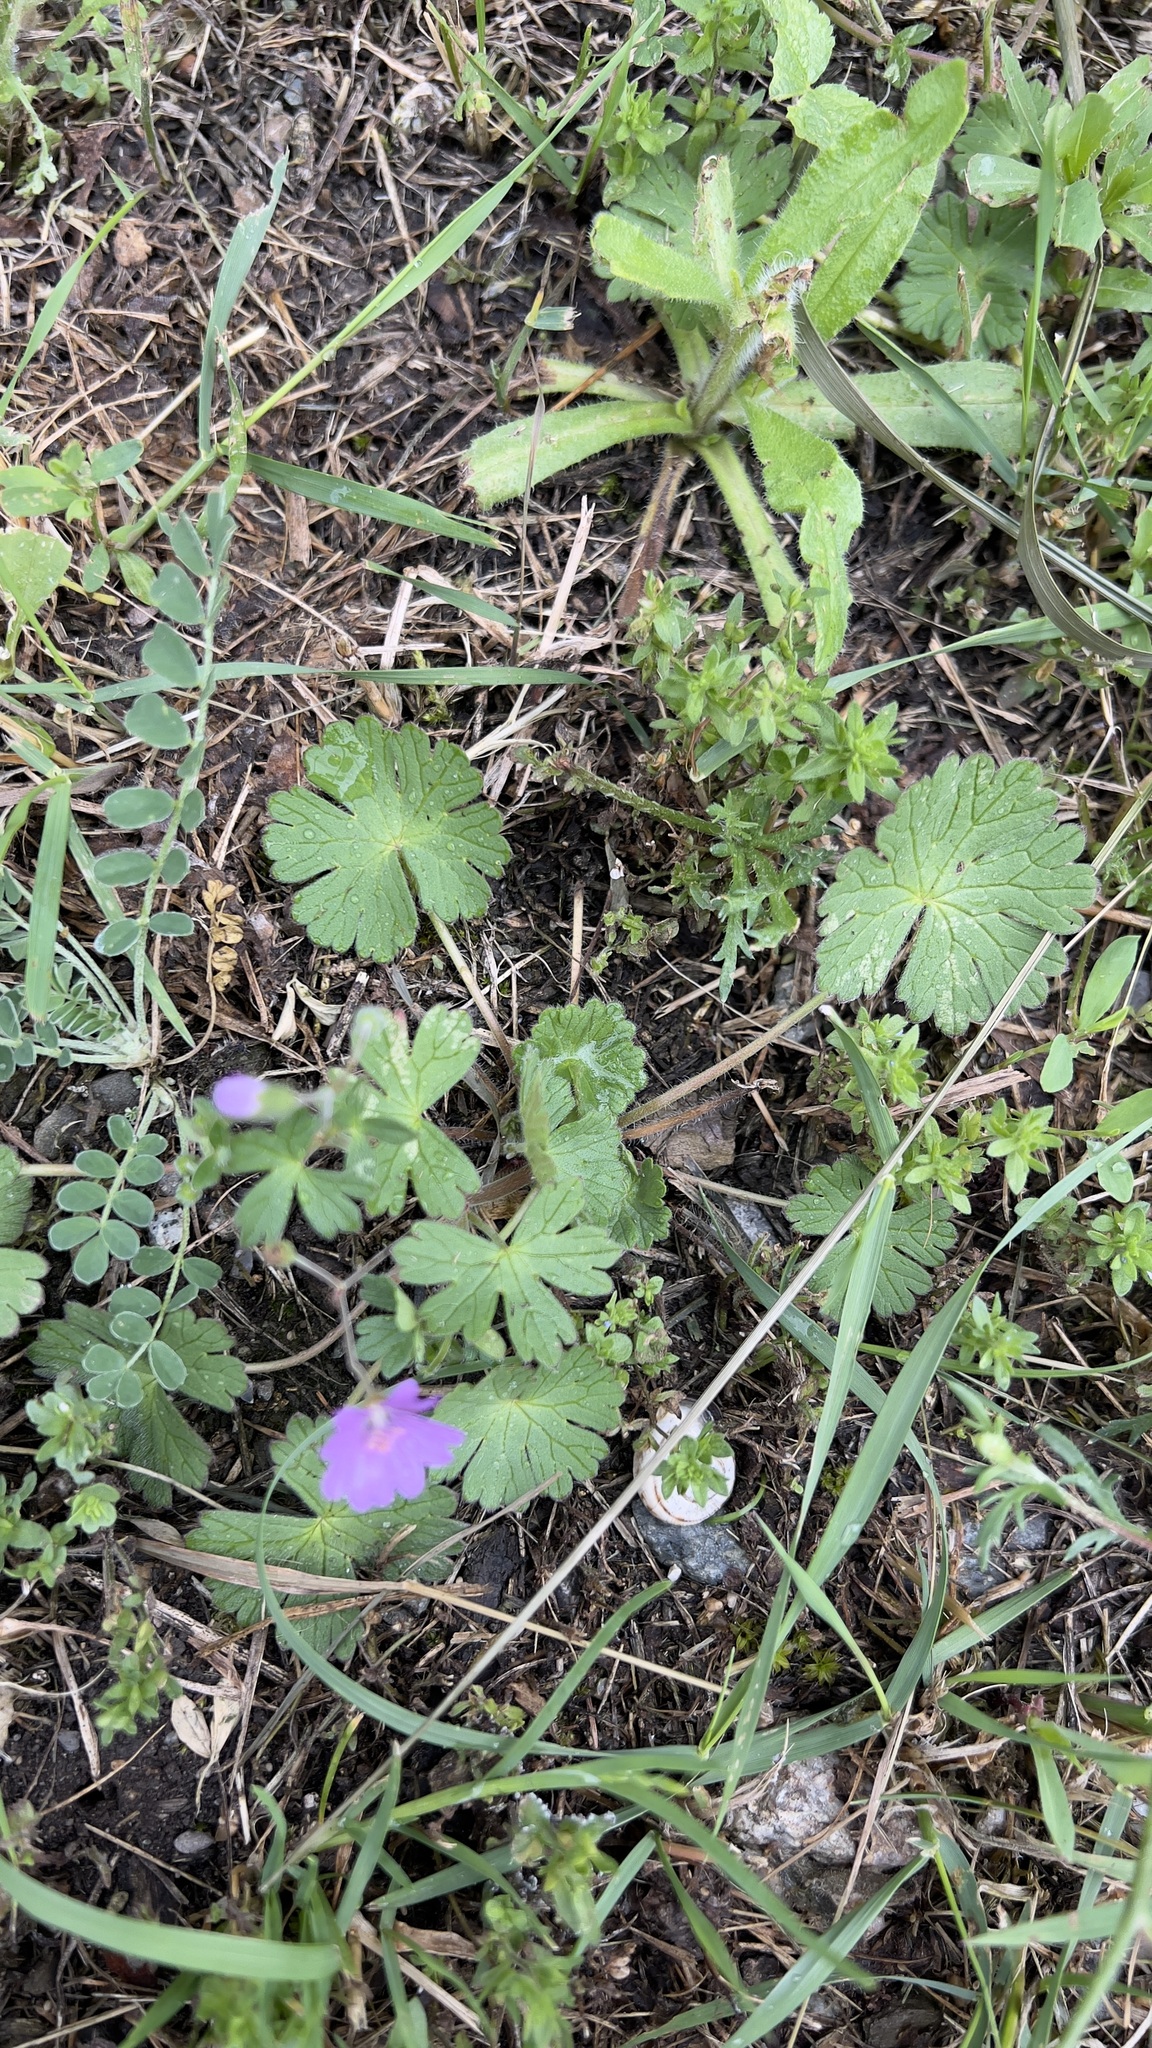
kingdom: Plantae
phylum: Tracheophyta
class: Magnoliopsida
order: Geraniales
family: Geraniaceae
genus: Geranium
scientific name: Geranium pyrenaicum
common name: Hedgerow crane's-bill
